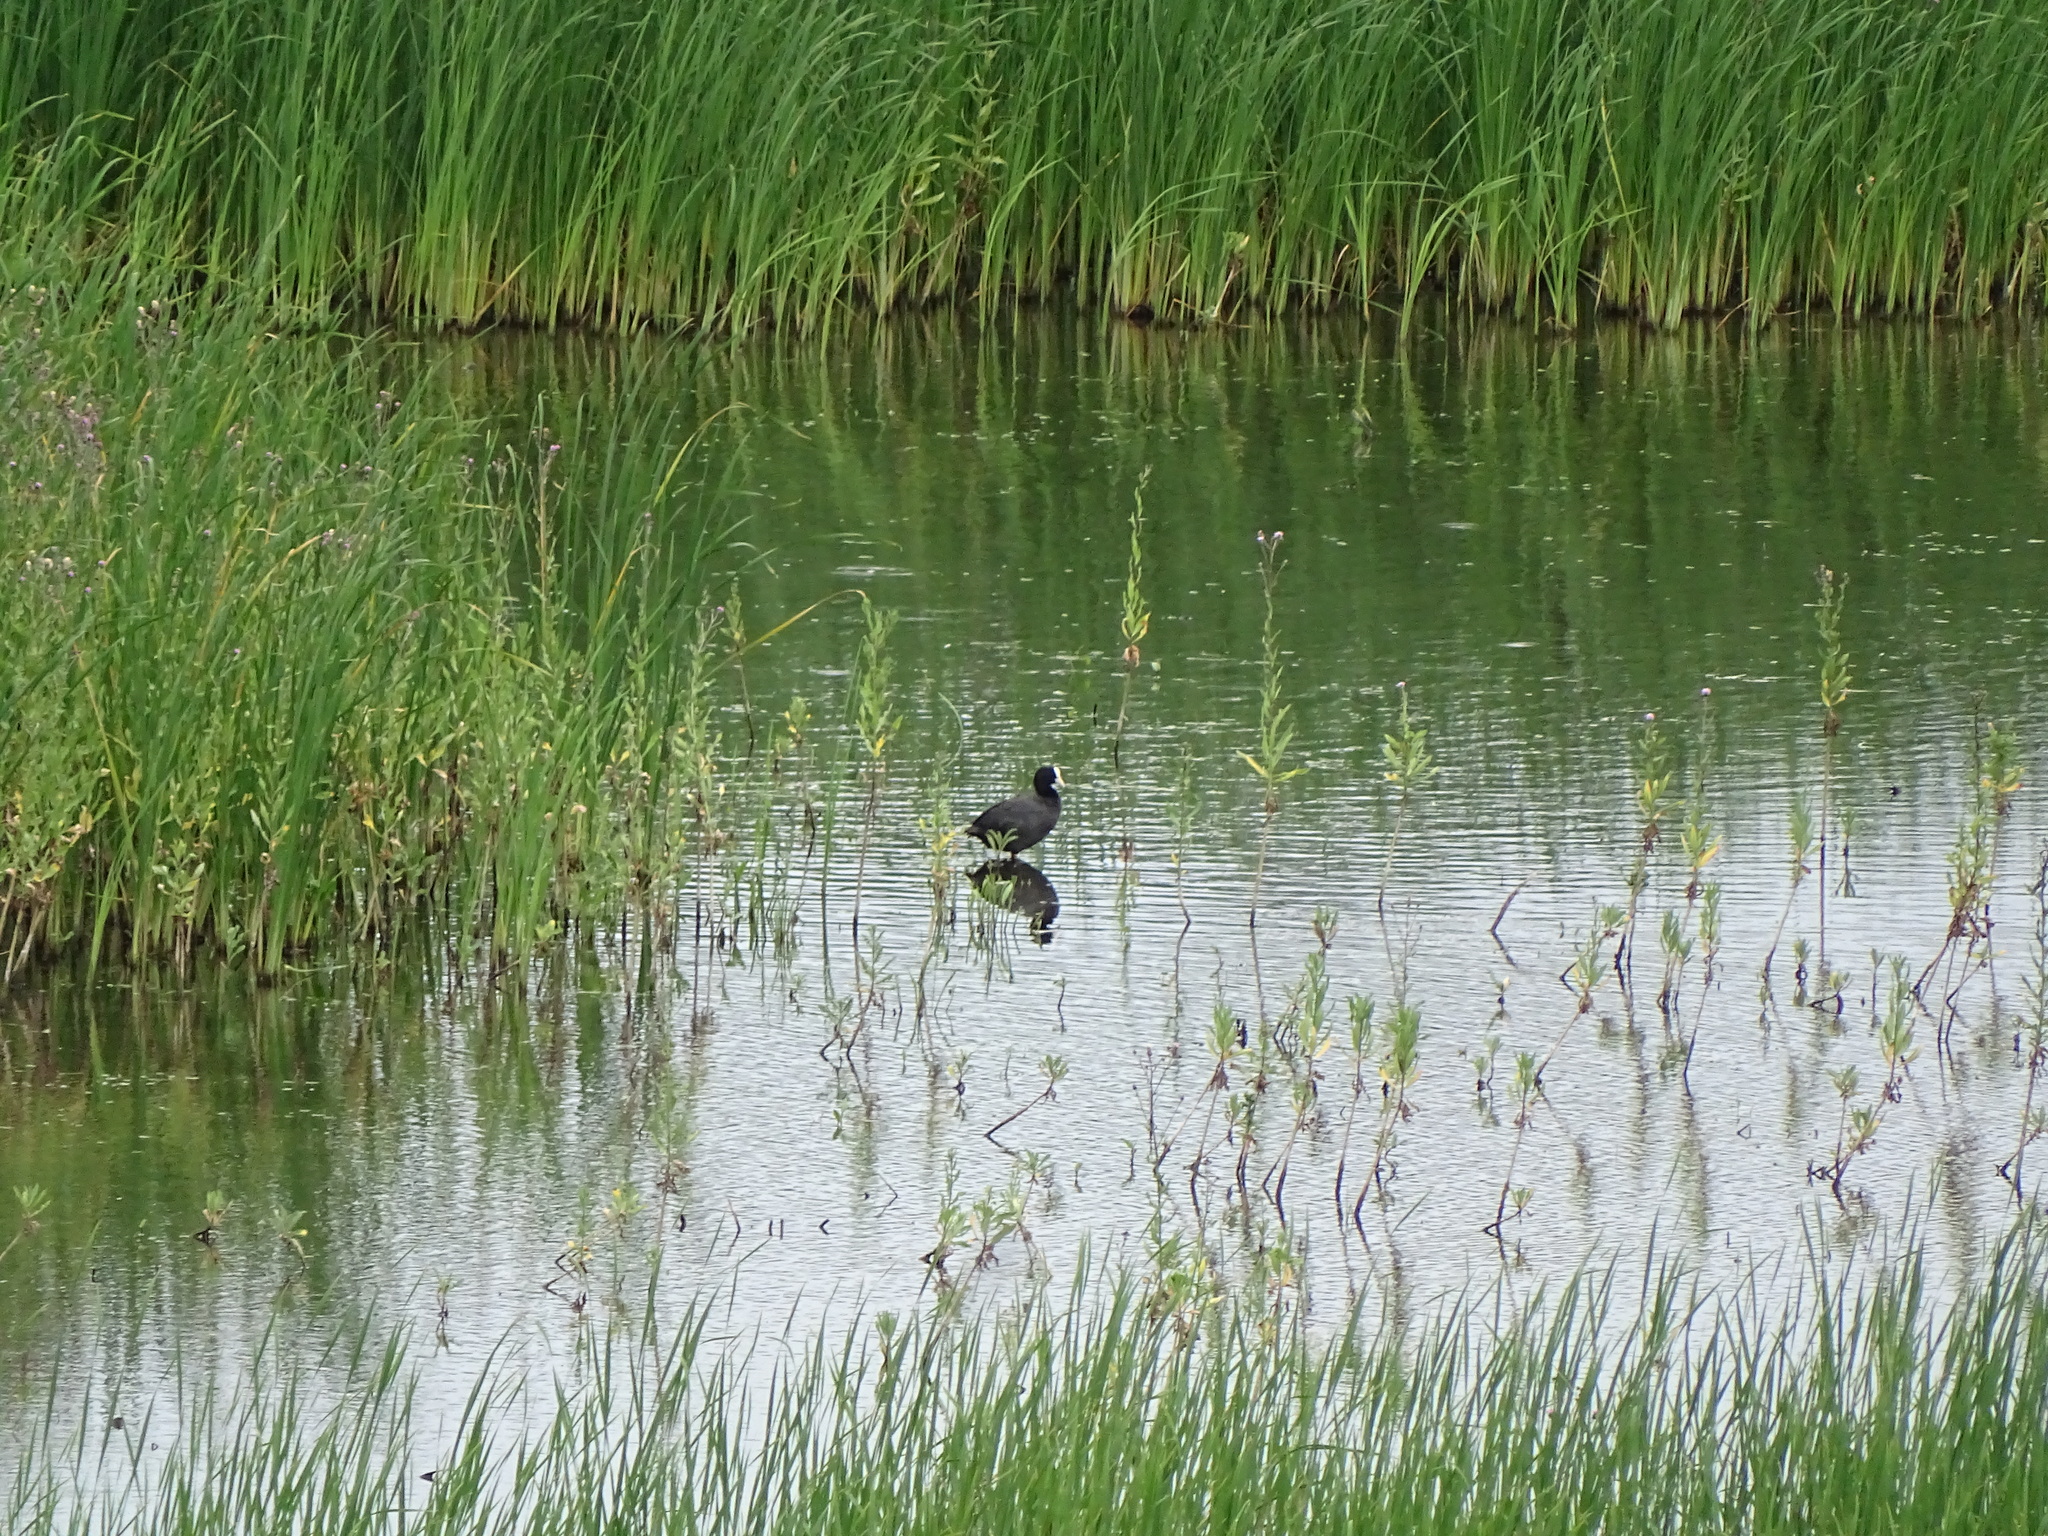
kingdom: Animalia
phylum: Chordata
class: Aves
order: Gruiformes
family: Rallidae
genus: Fulica
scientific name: Fulica atra
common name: Eurasian coot
